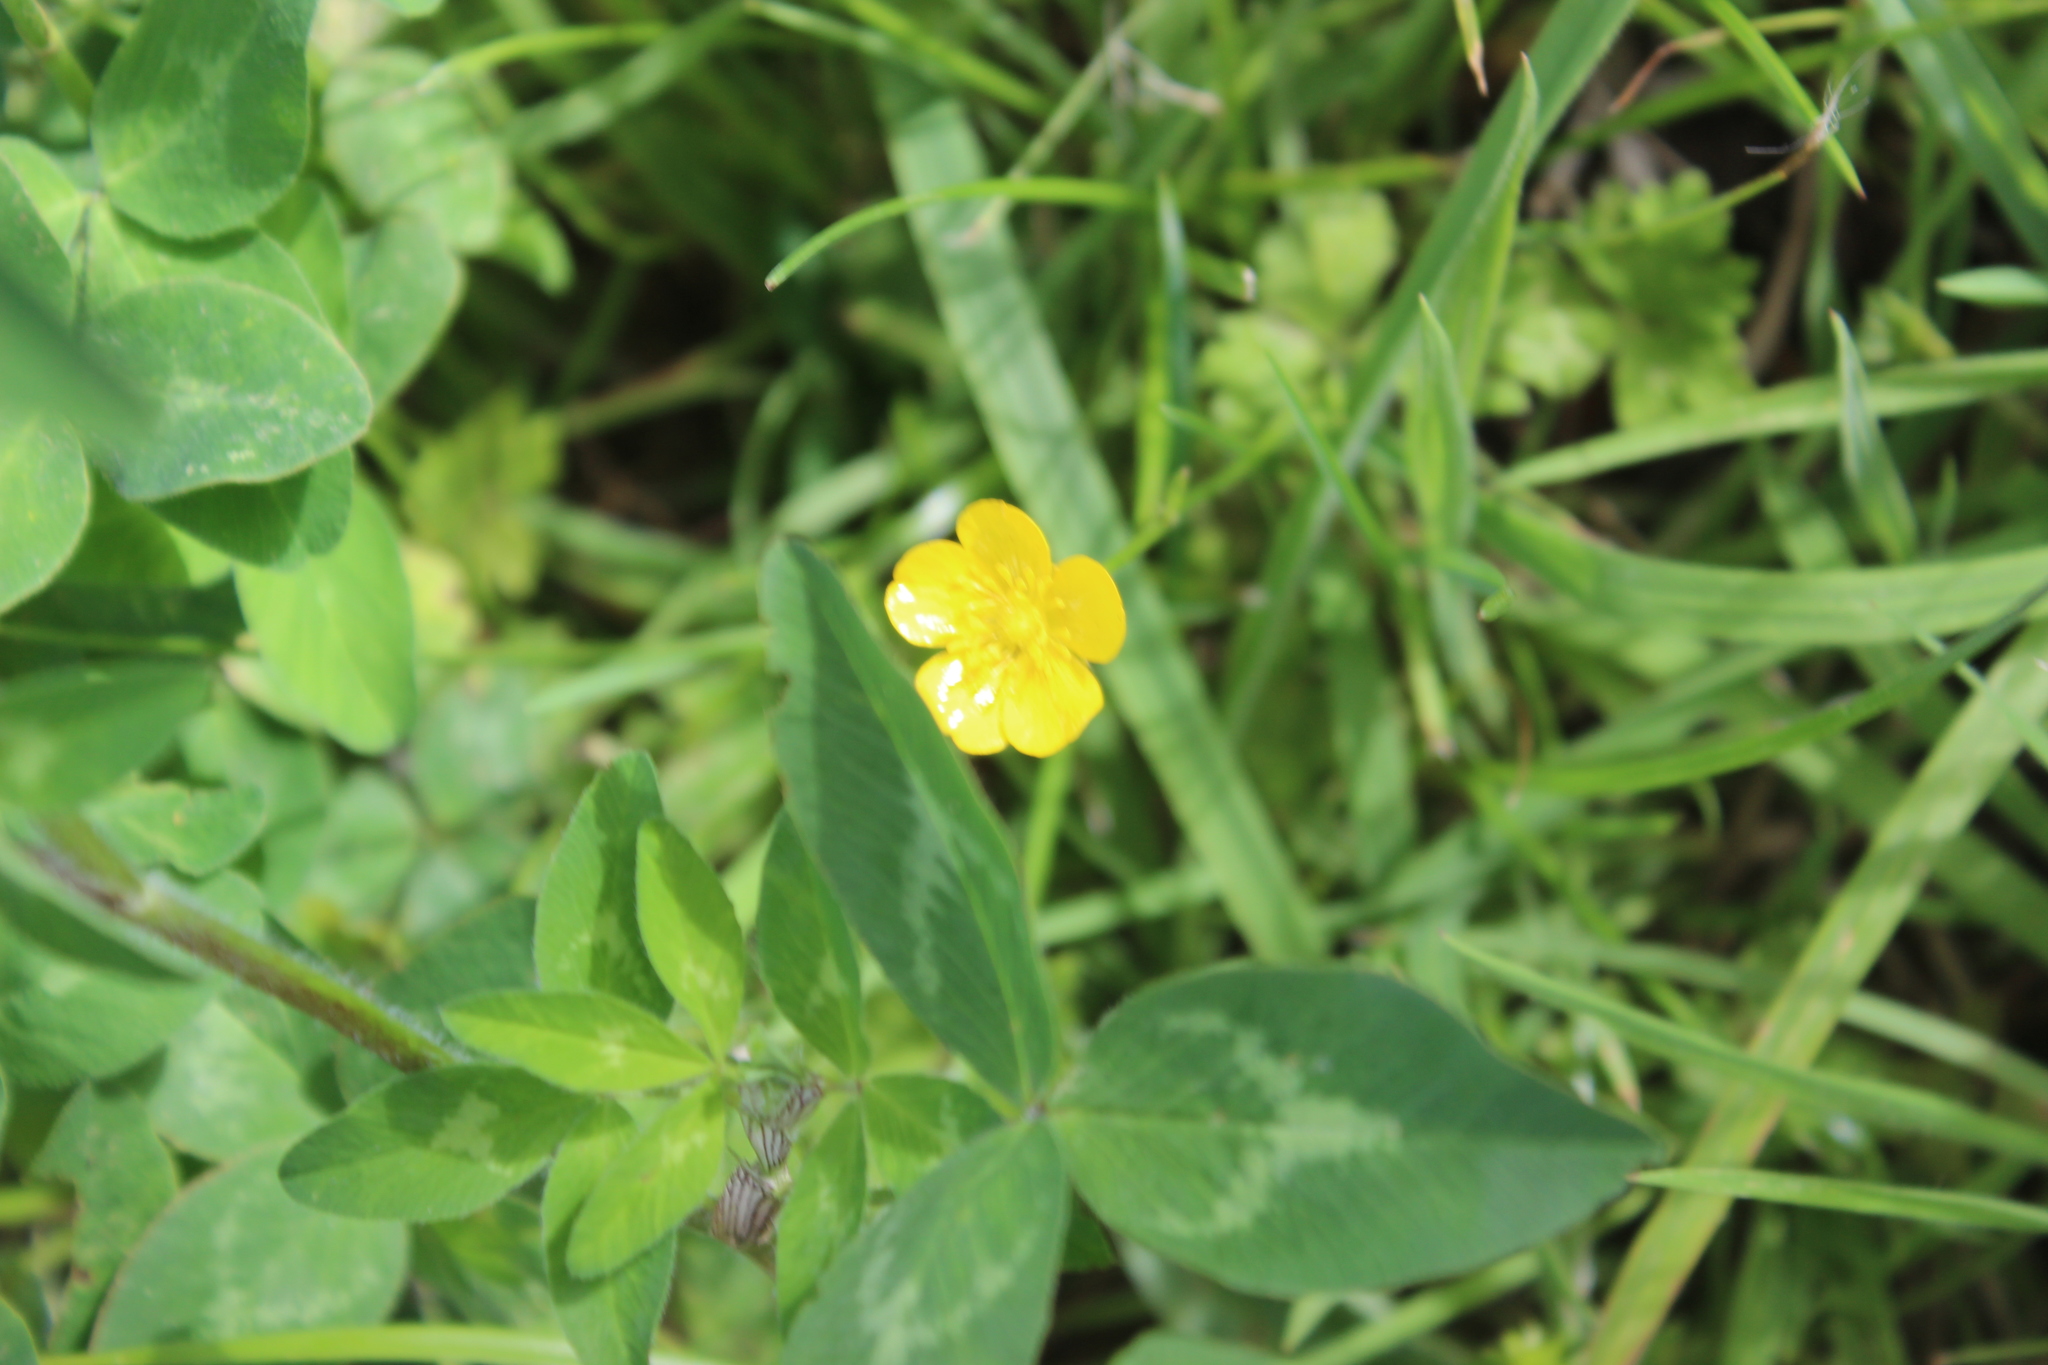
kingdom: Plantae
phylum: Tracheophyta
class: Magnoliopsida
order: Ranunculales
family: Ranunculaceae
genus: Ranunculus
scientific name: Ranunculus repens
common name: Creeping buttercup
